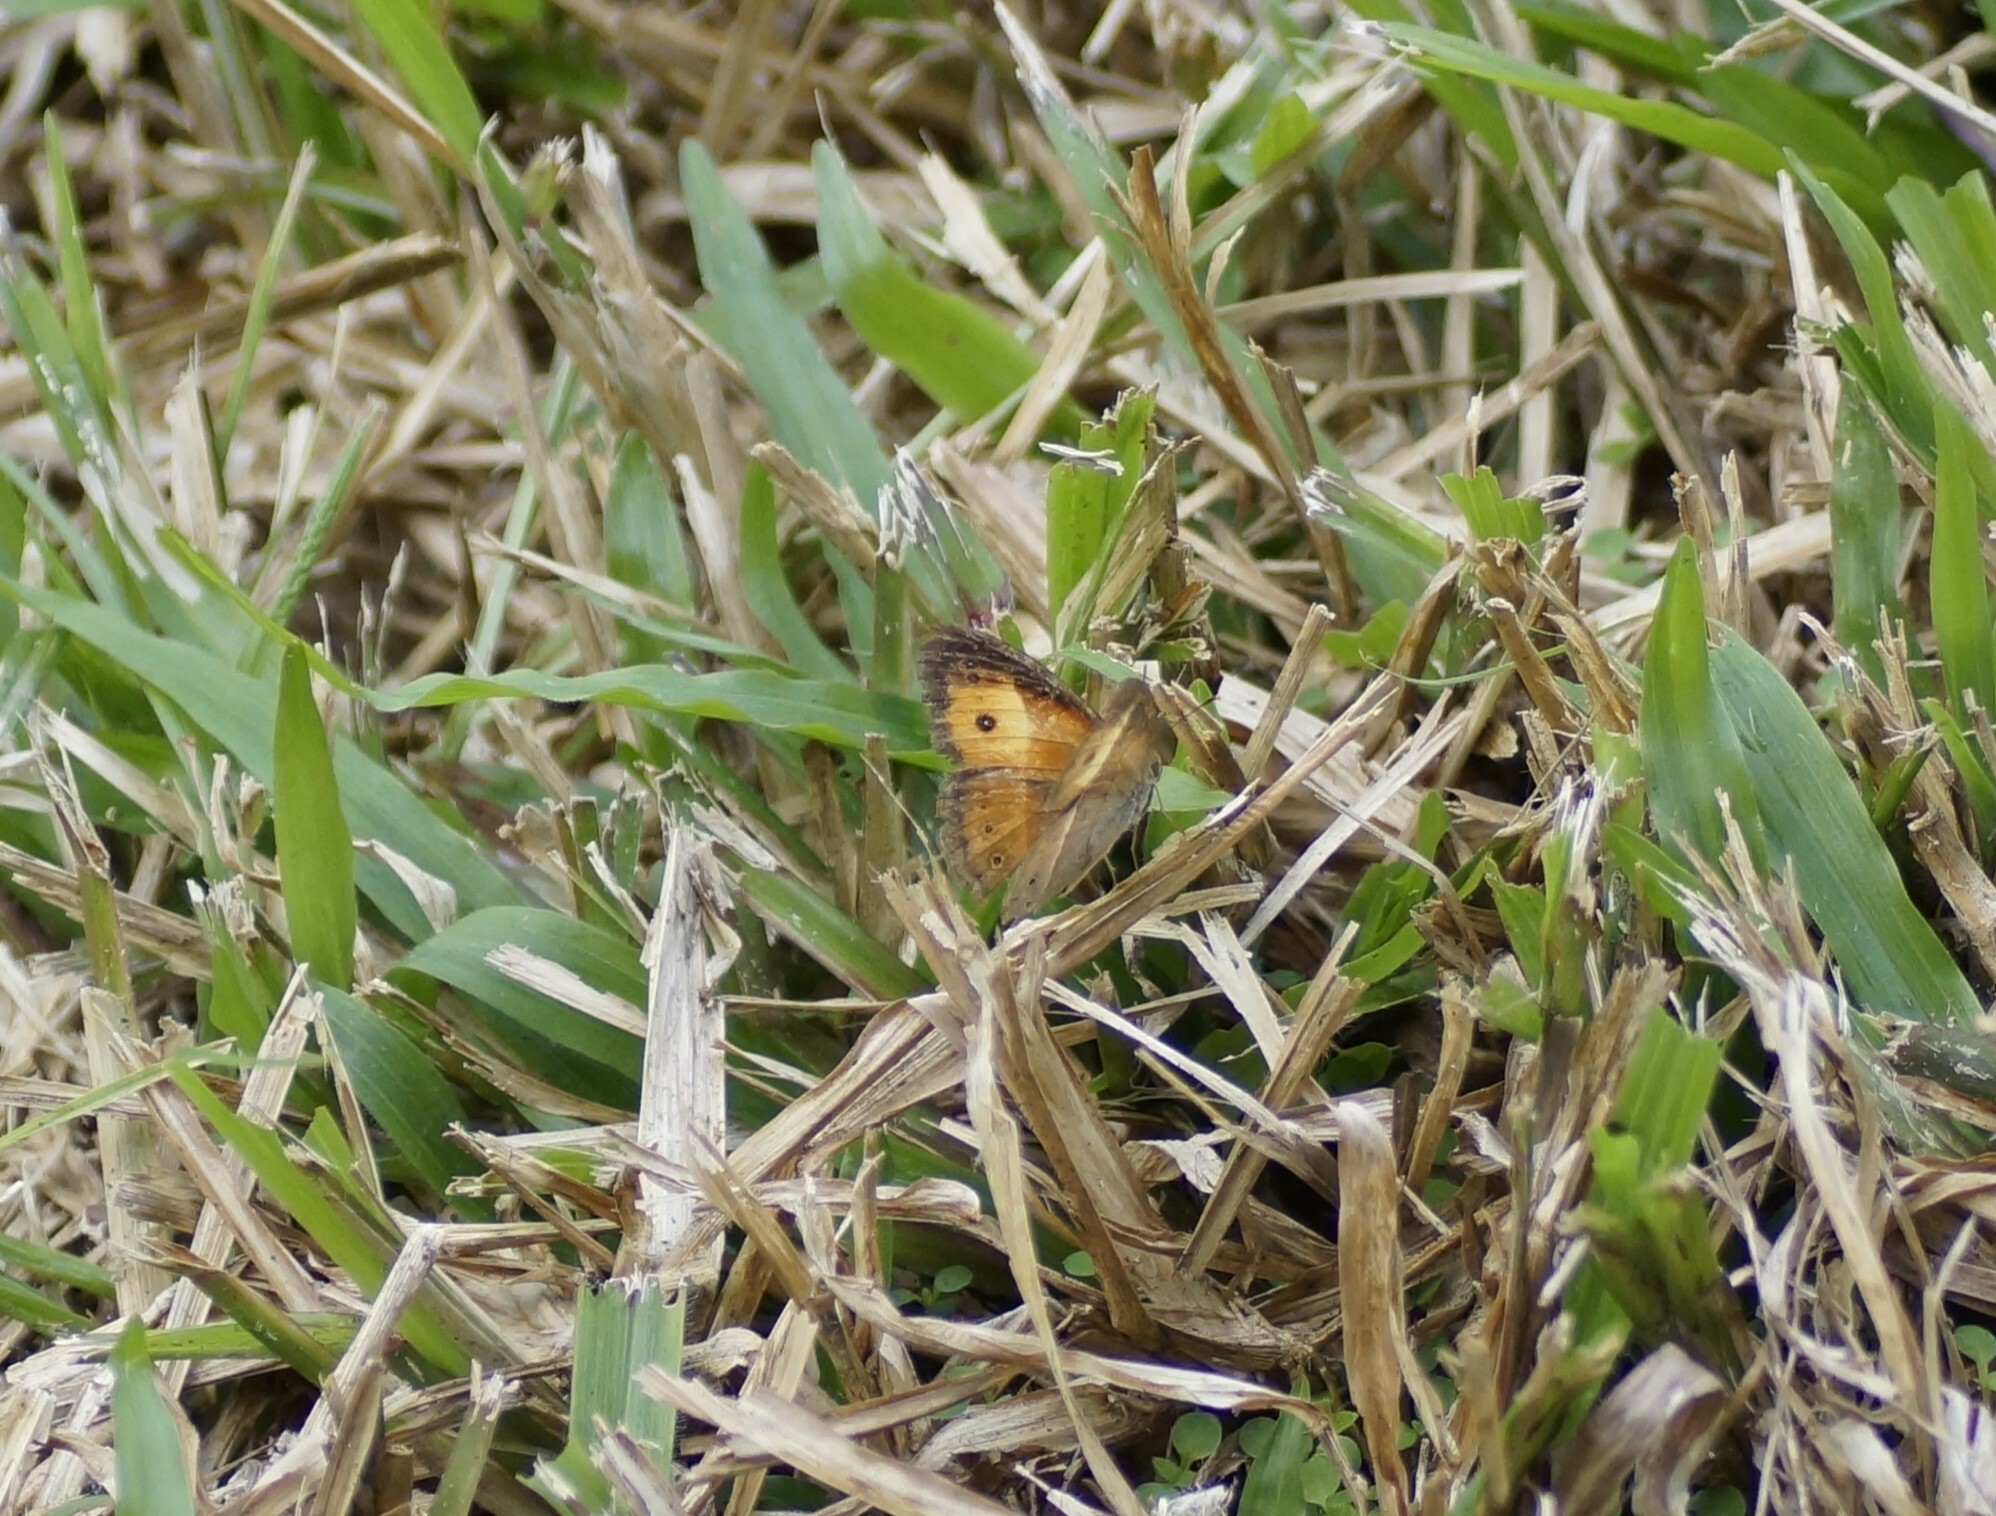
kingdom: Animalia
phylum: Arthropoda
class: Insecta
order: Lepidoptera
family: Nymphalidae
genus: Mycalesis
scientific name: Mycalesis terminus
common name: Orange bushbrown
